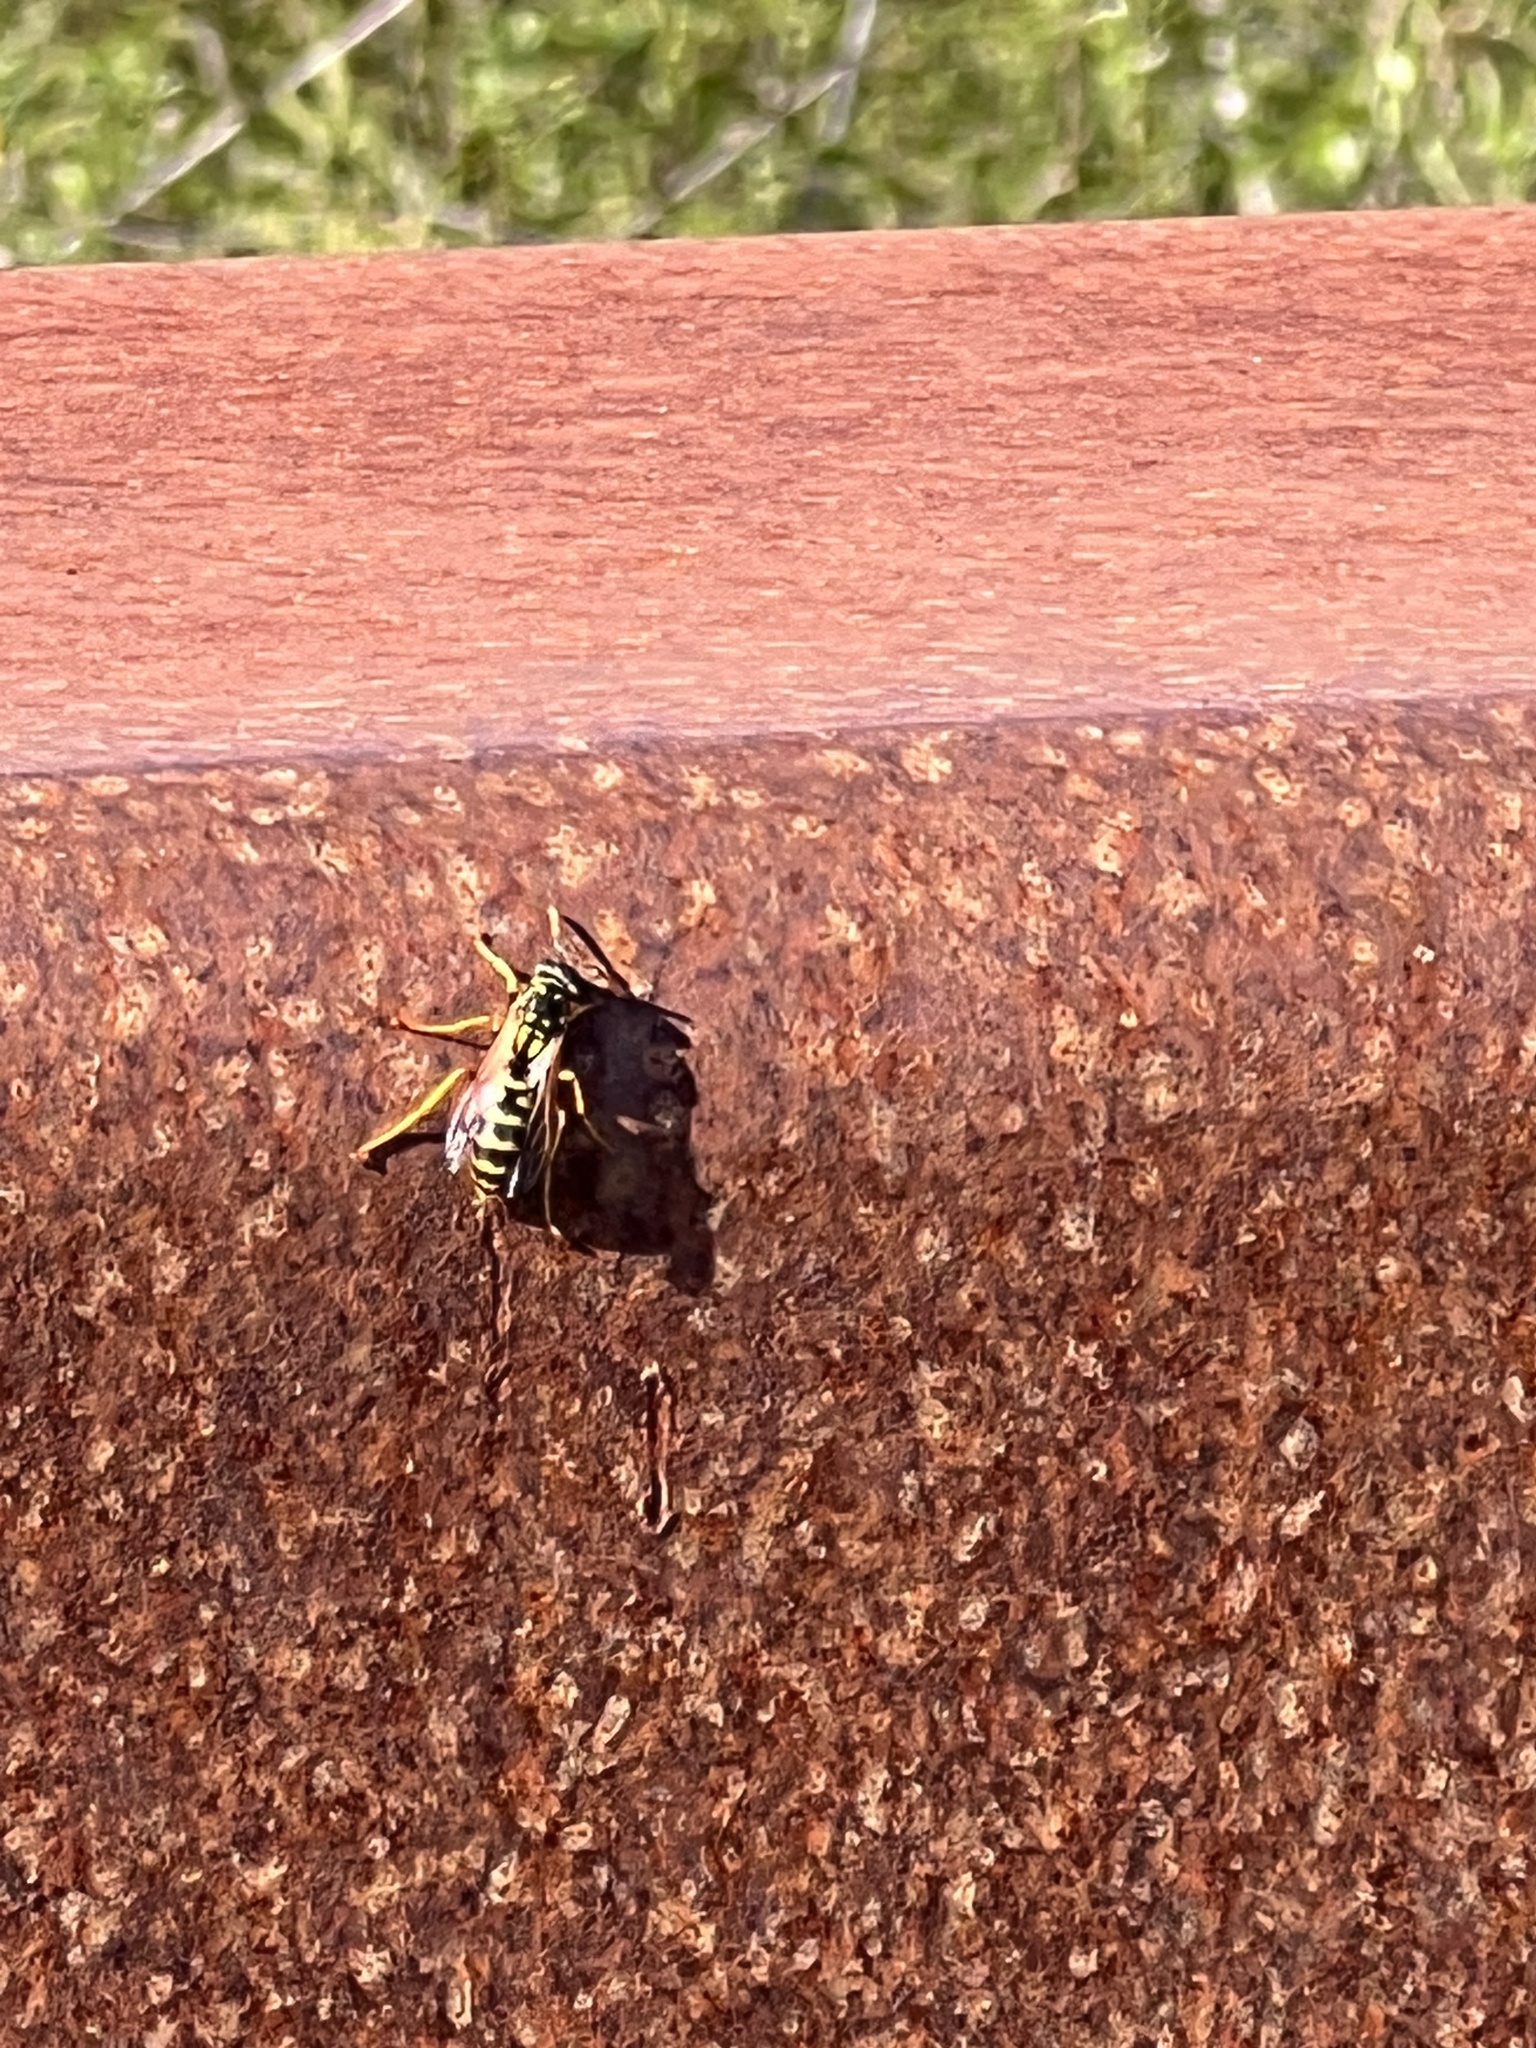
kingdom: Animalia
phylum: Arthropoda
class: Insecta
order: Hymenoptera
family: Eumenidae
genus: Polistes
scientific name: Polistes dominula
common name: Paper wasp
